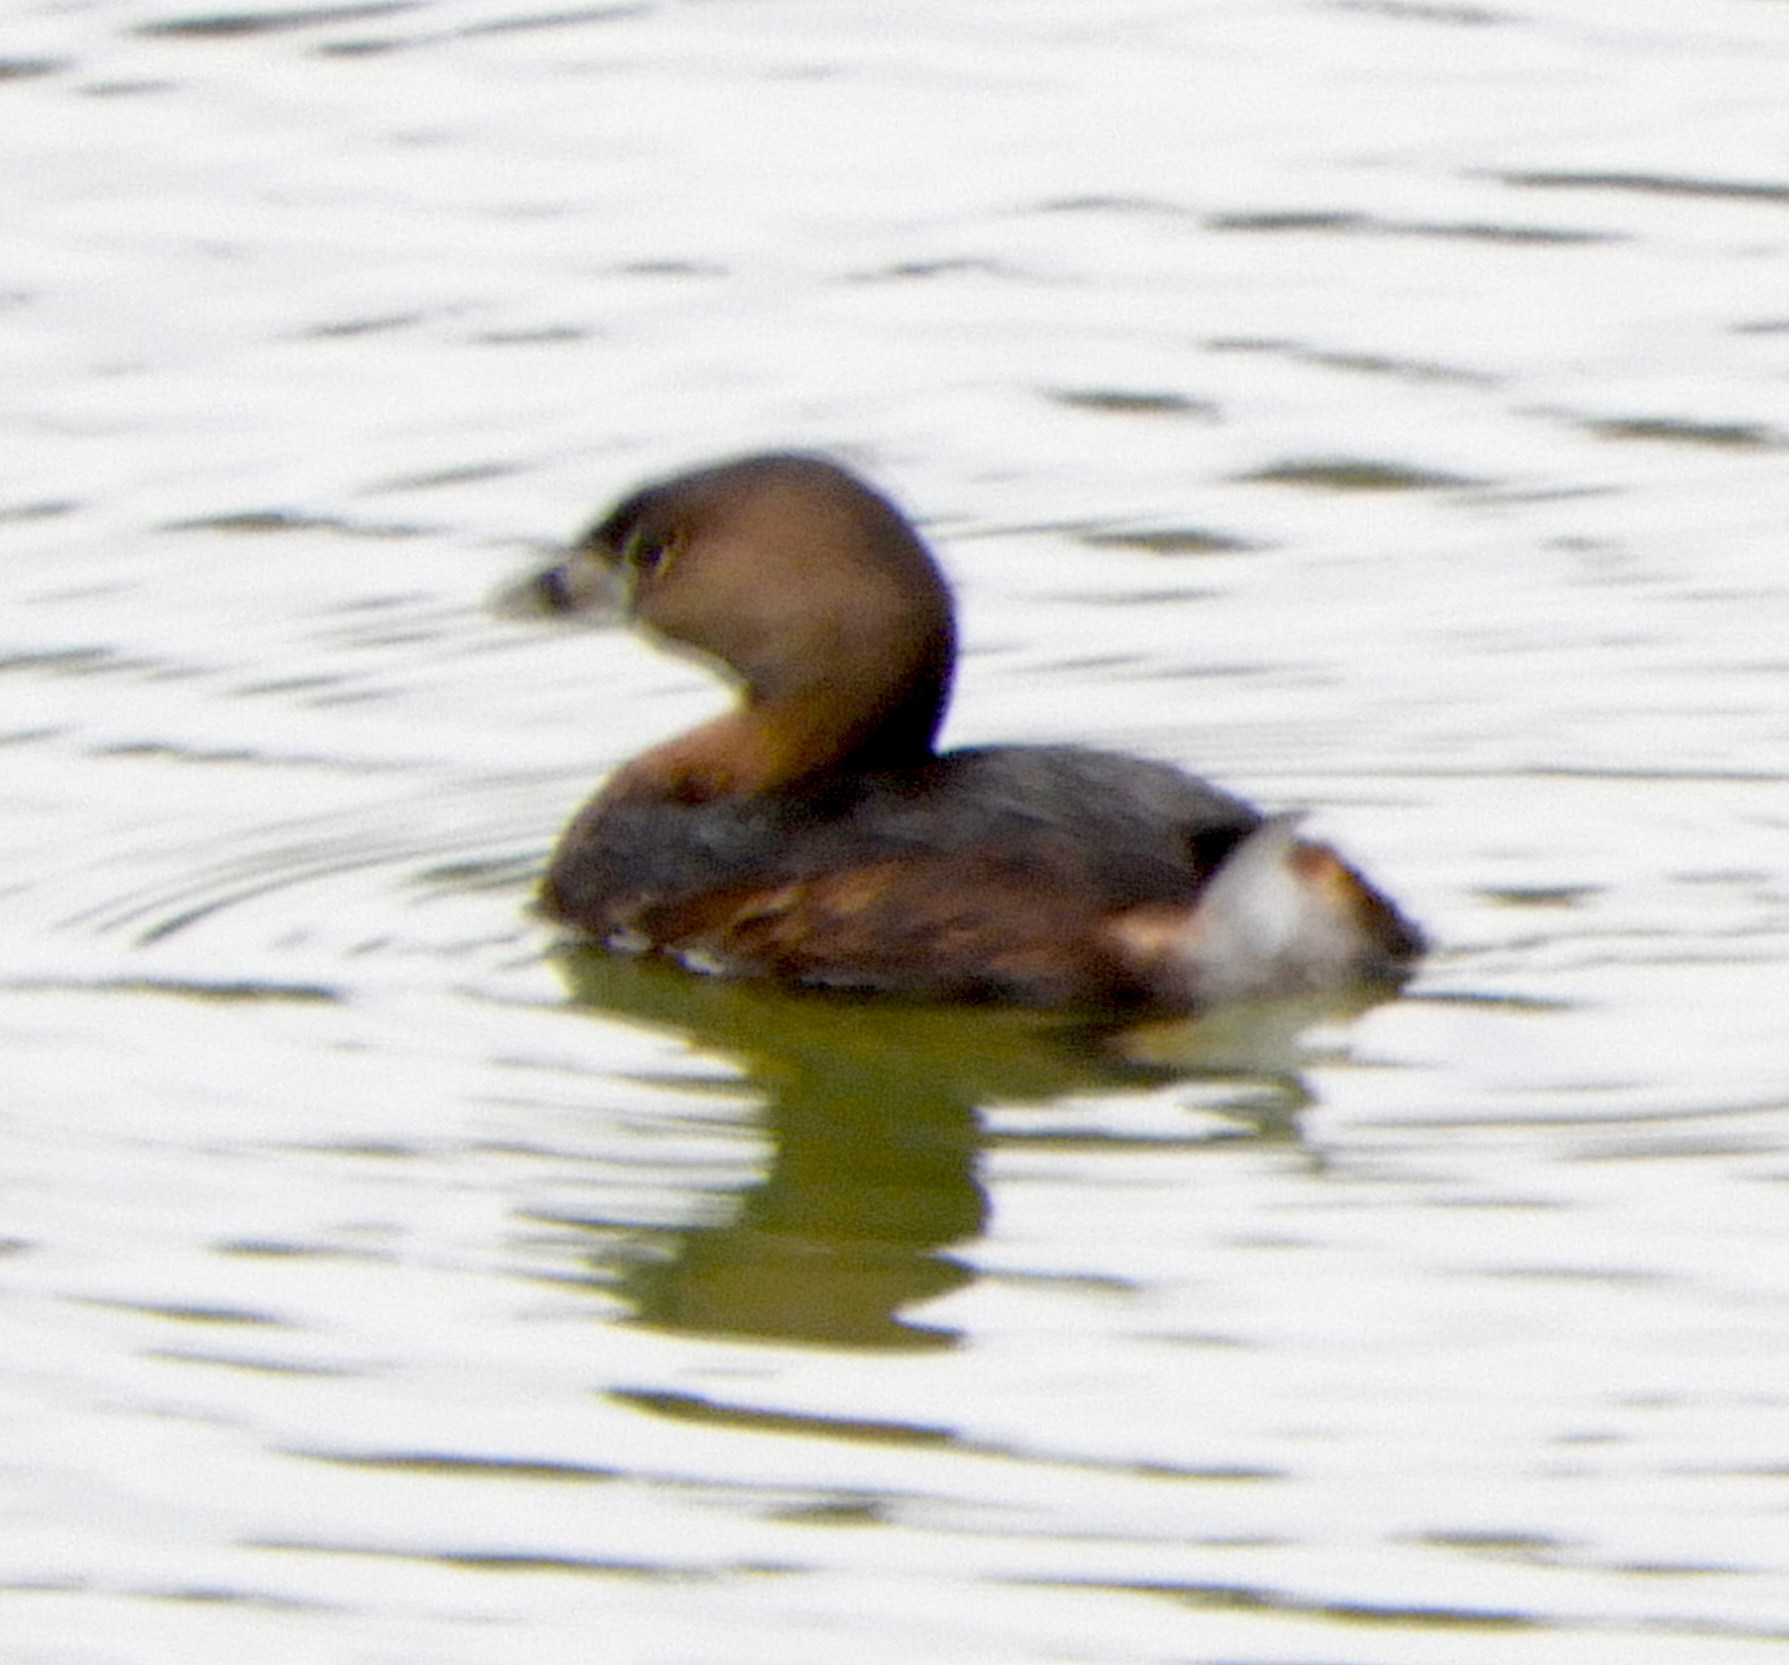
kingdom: Animalia
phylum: Chordata
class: Aves
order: Podicipediformes
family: Podicipedidae
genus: Podilymbus
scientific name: Podilymbus podiceps
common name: Pied-billed grebe
